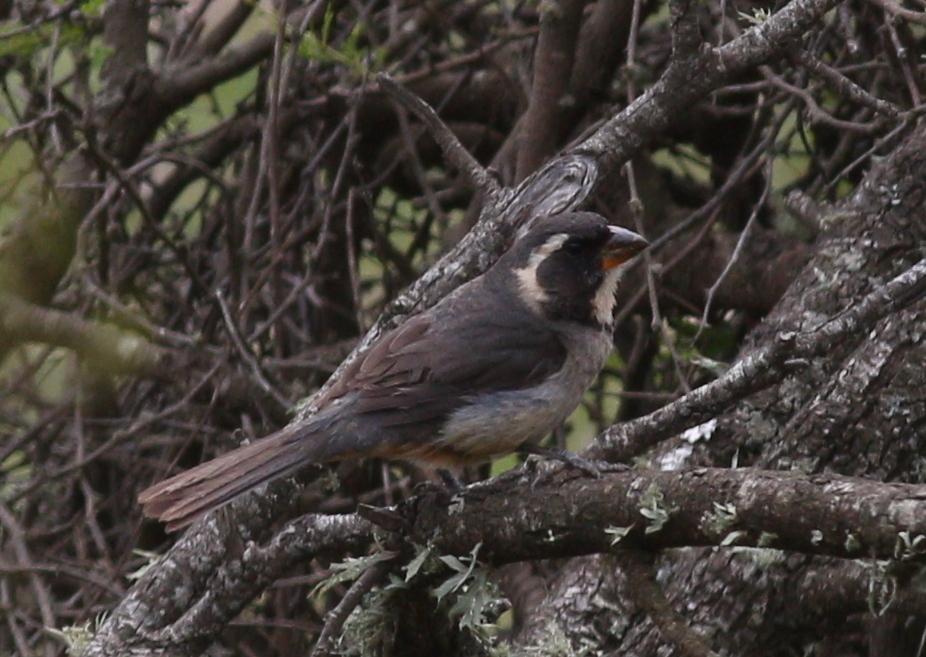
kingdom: Animalia
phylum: Chordata
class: Aves
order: Passeriformes
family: Thraupidae
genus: Saltator
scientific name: Saltator aurantiirostris
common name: Golden-billed saltator
